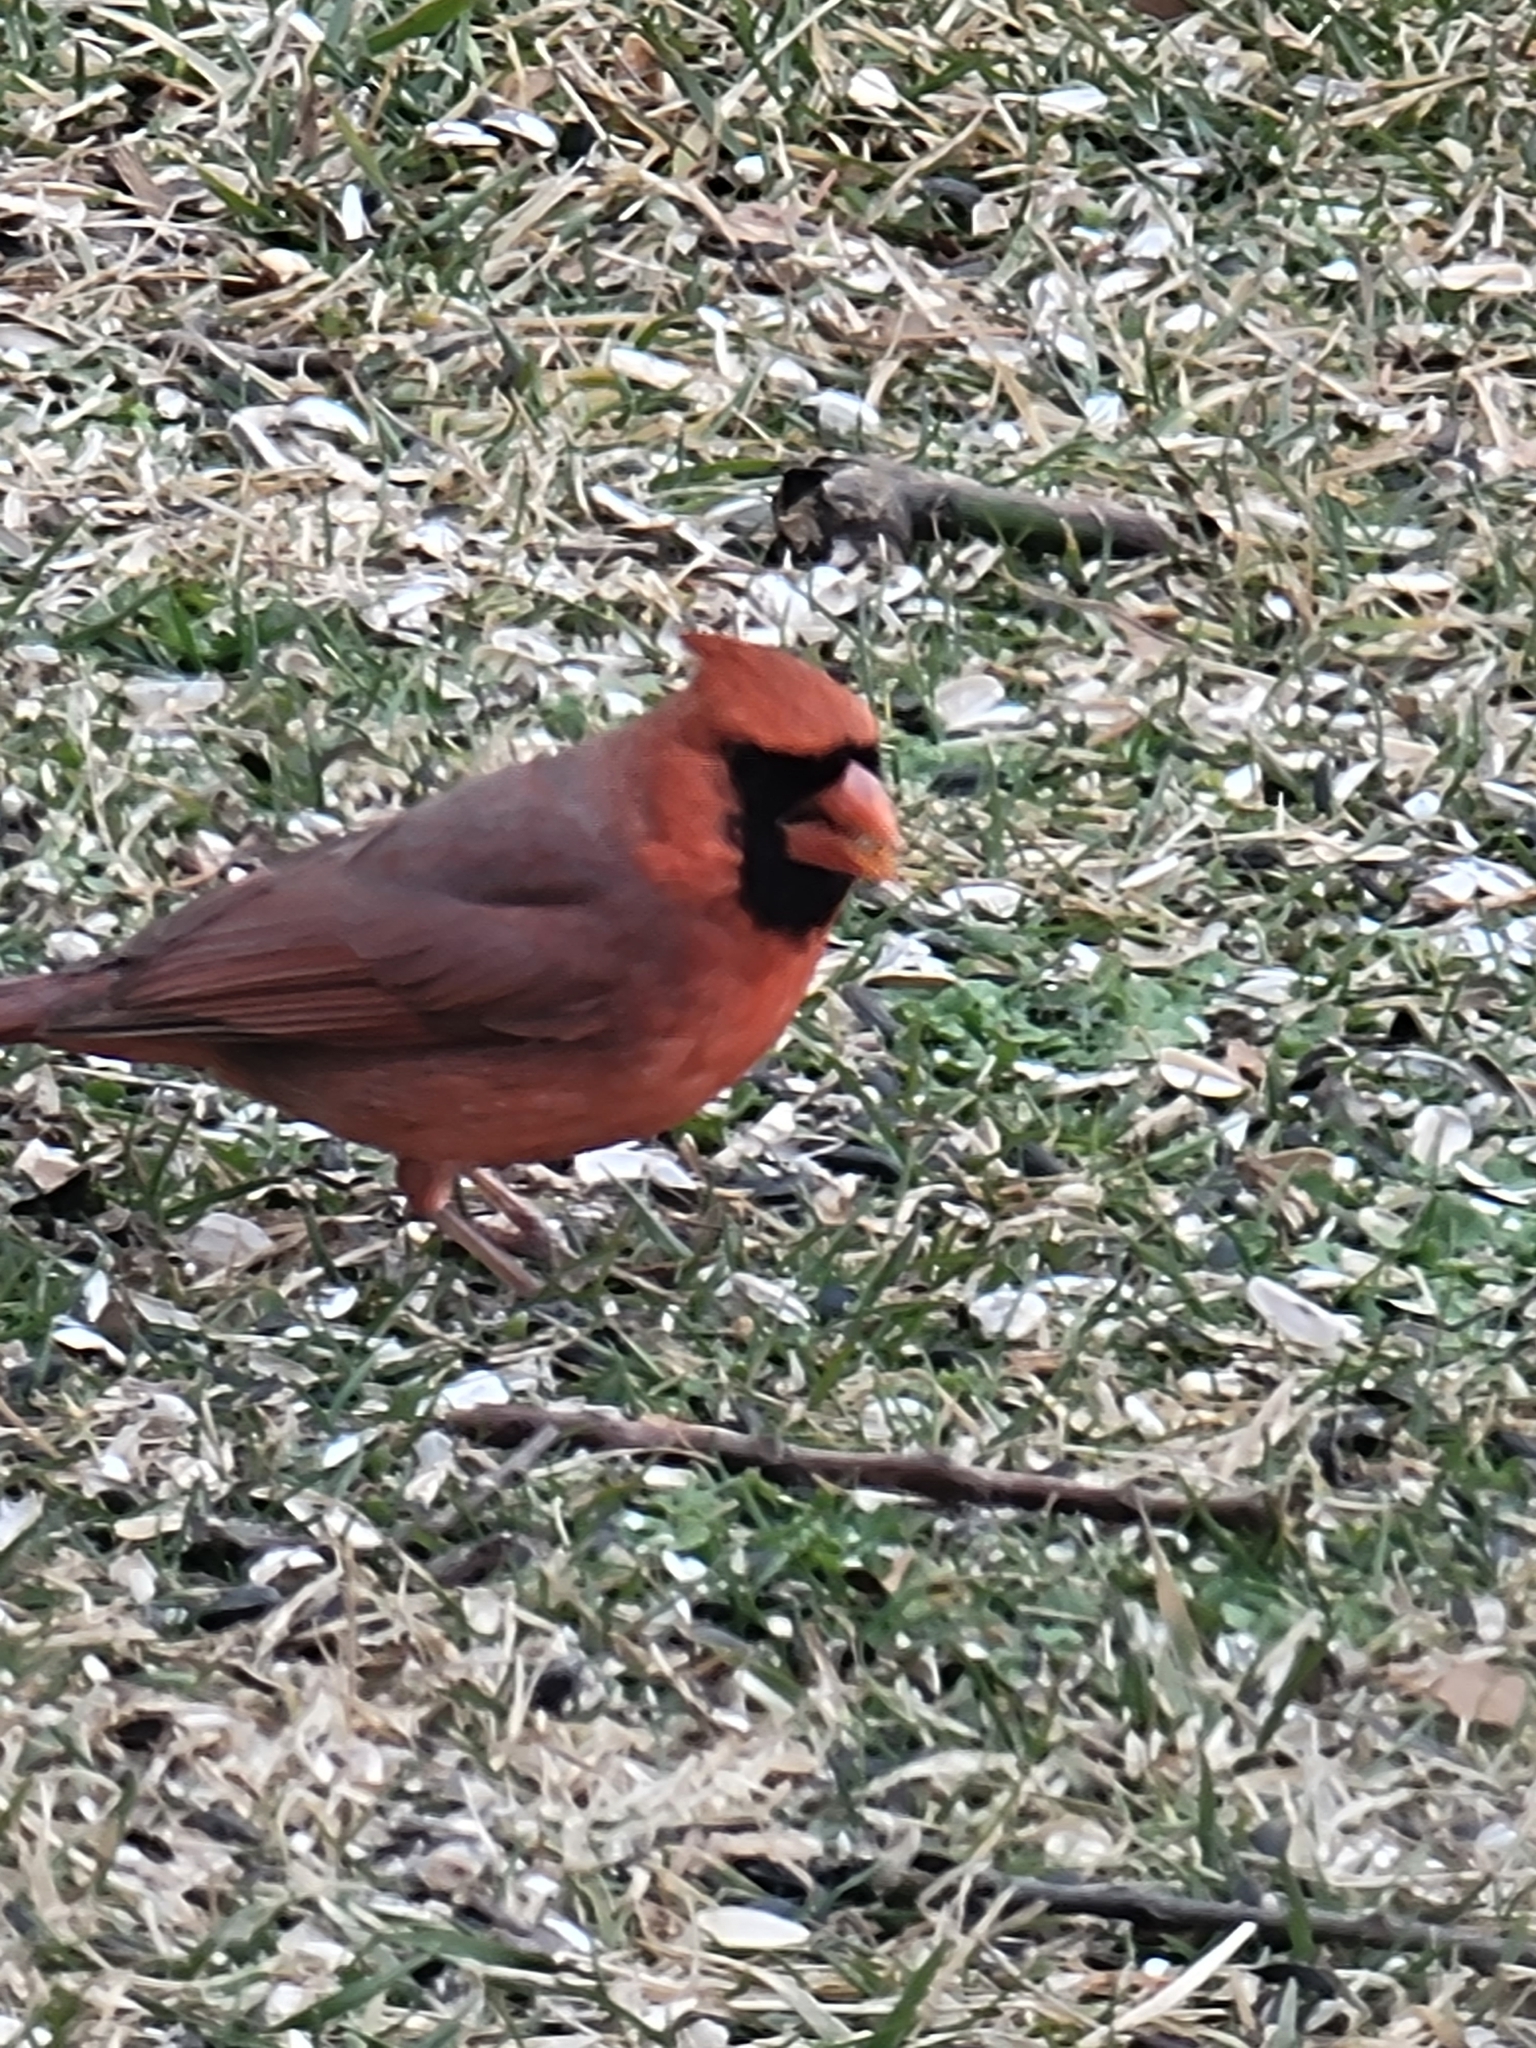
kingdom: Animalia
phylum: Chordata
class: Aves
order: Passeriformes
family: Cardinalidae
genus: Cardinalis
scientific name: Cardinalis cardinalis
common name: Northern cardinal
